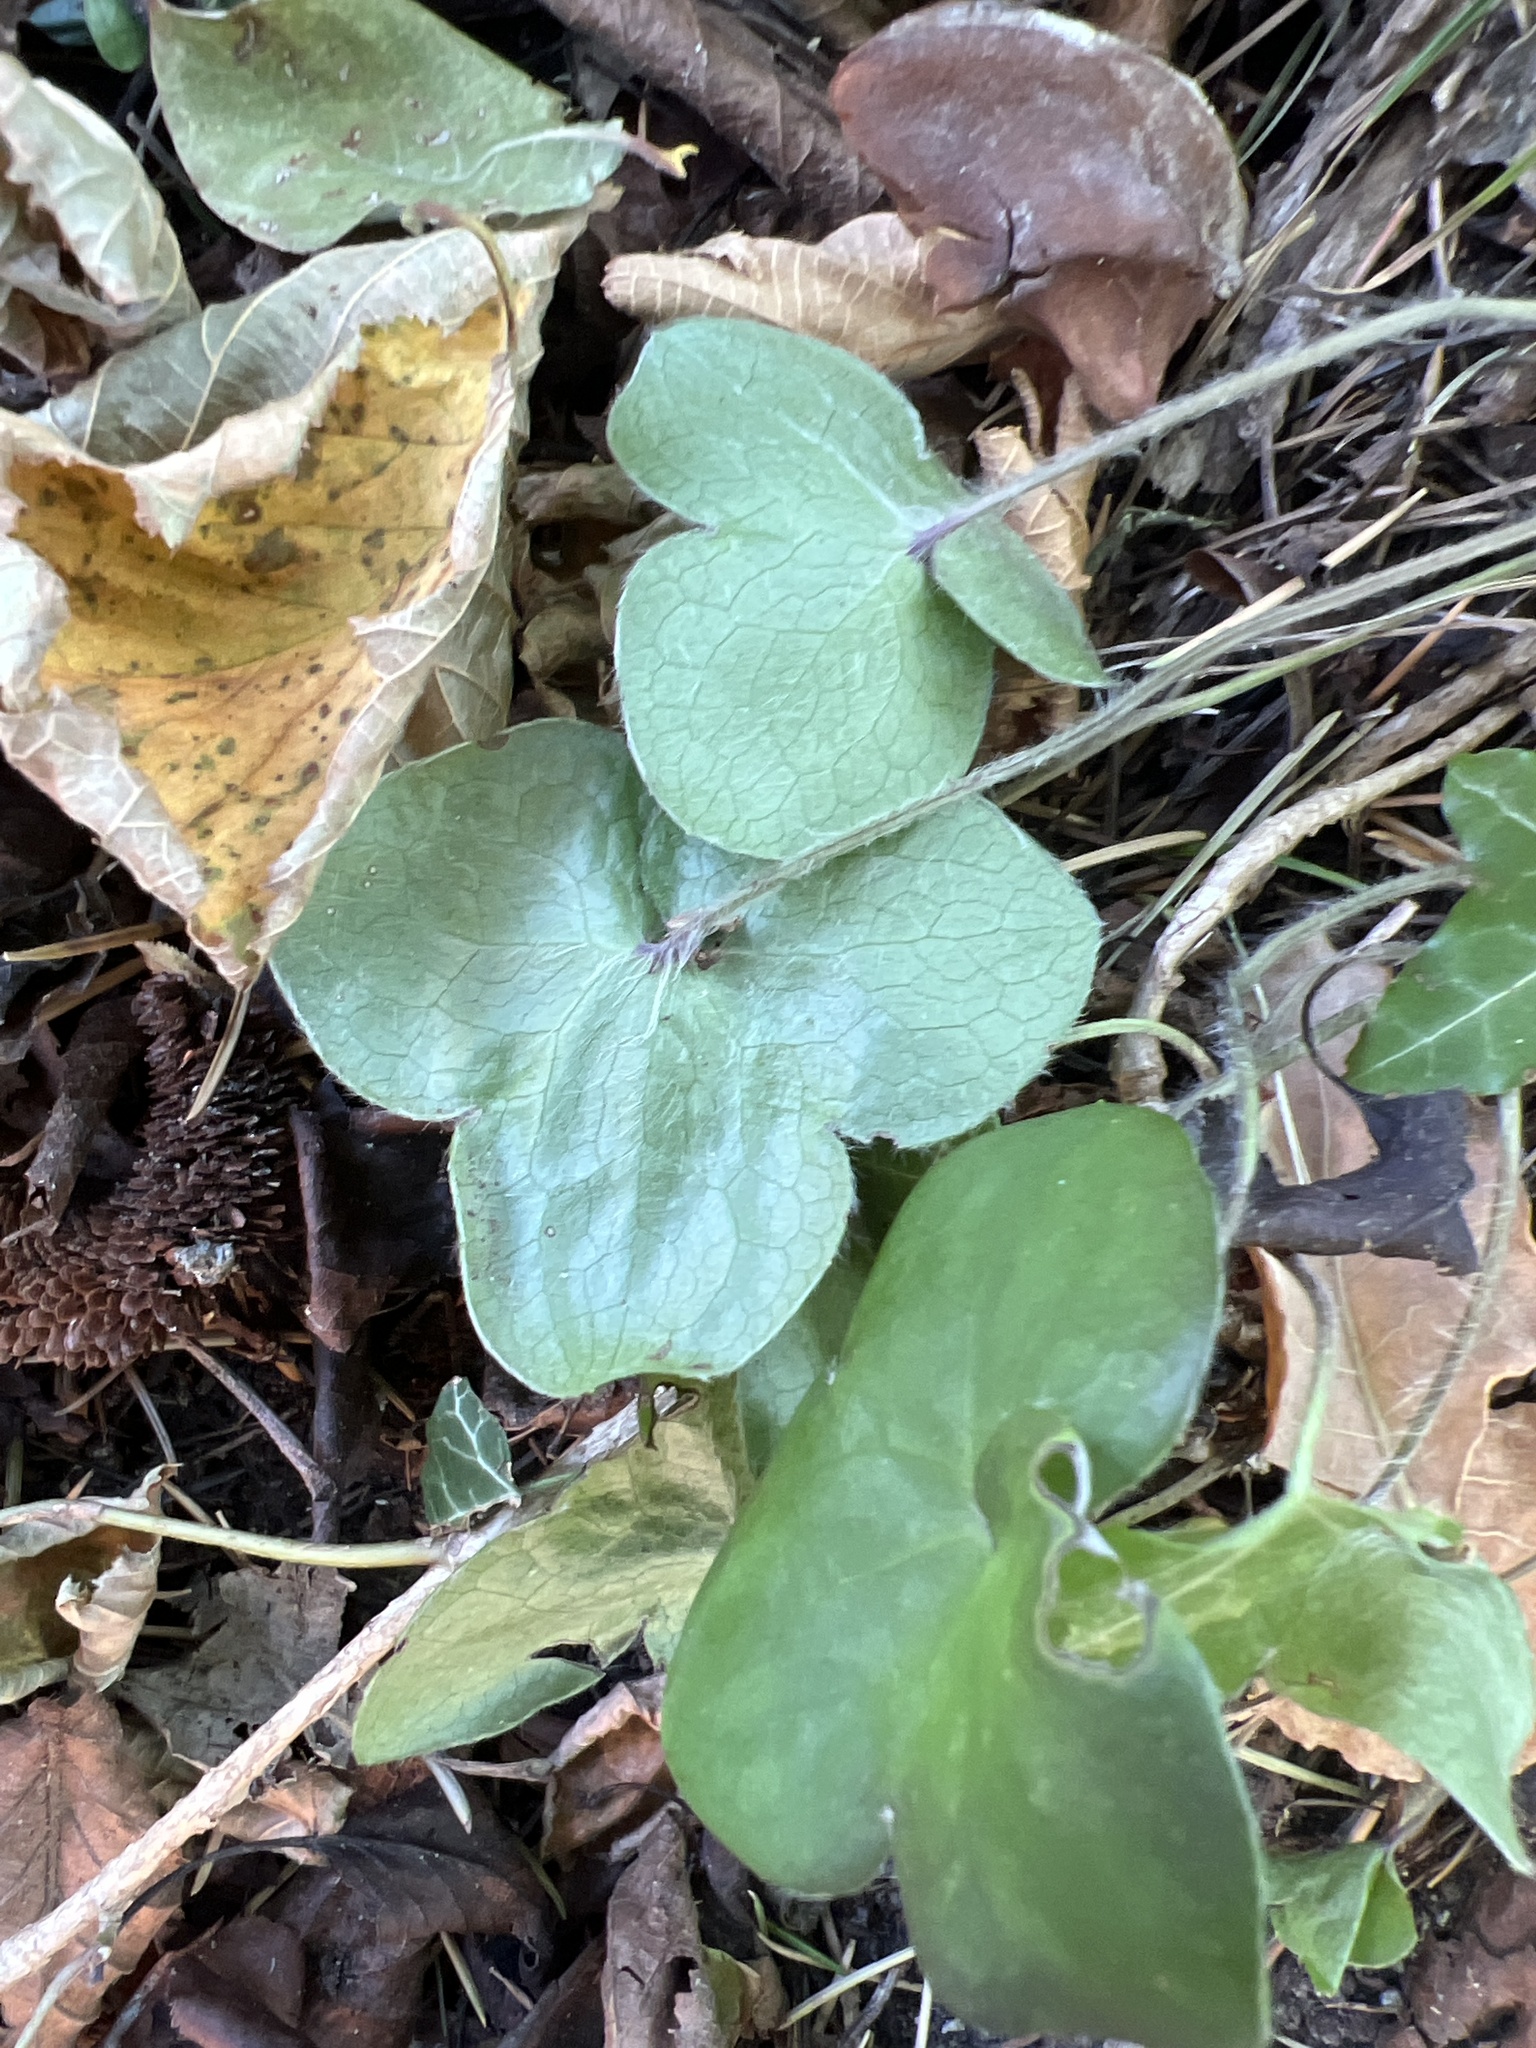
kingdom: Plantae
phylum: Tracheophyta
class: Magnoliopsida
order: Ranunculales
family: Ranunculaceae
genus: Hepatica
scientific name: Hepatica nobilis
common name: Liverleaf
